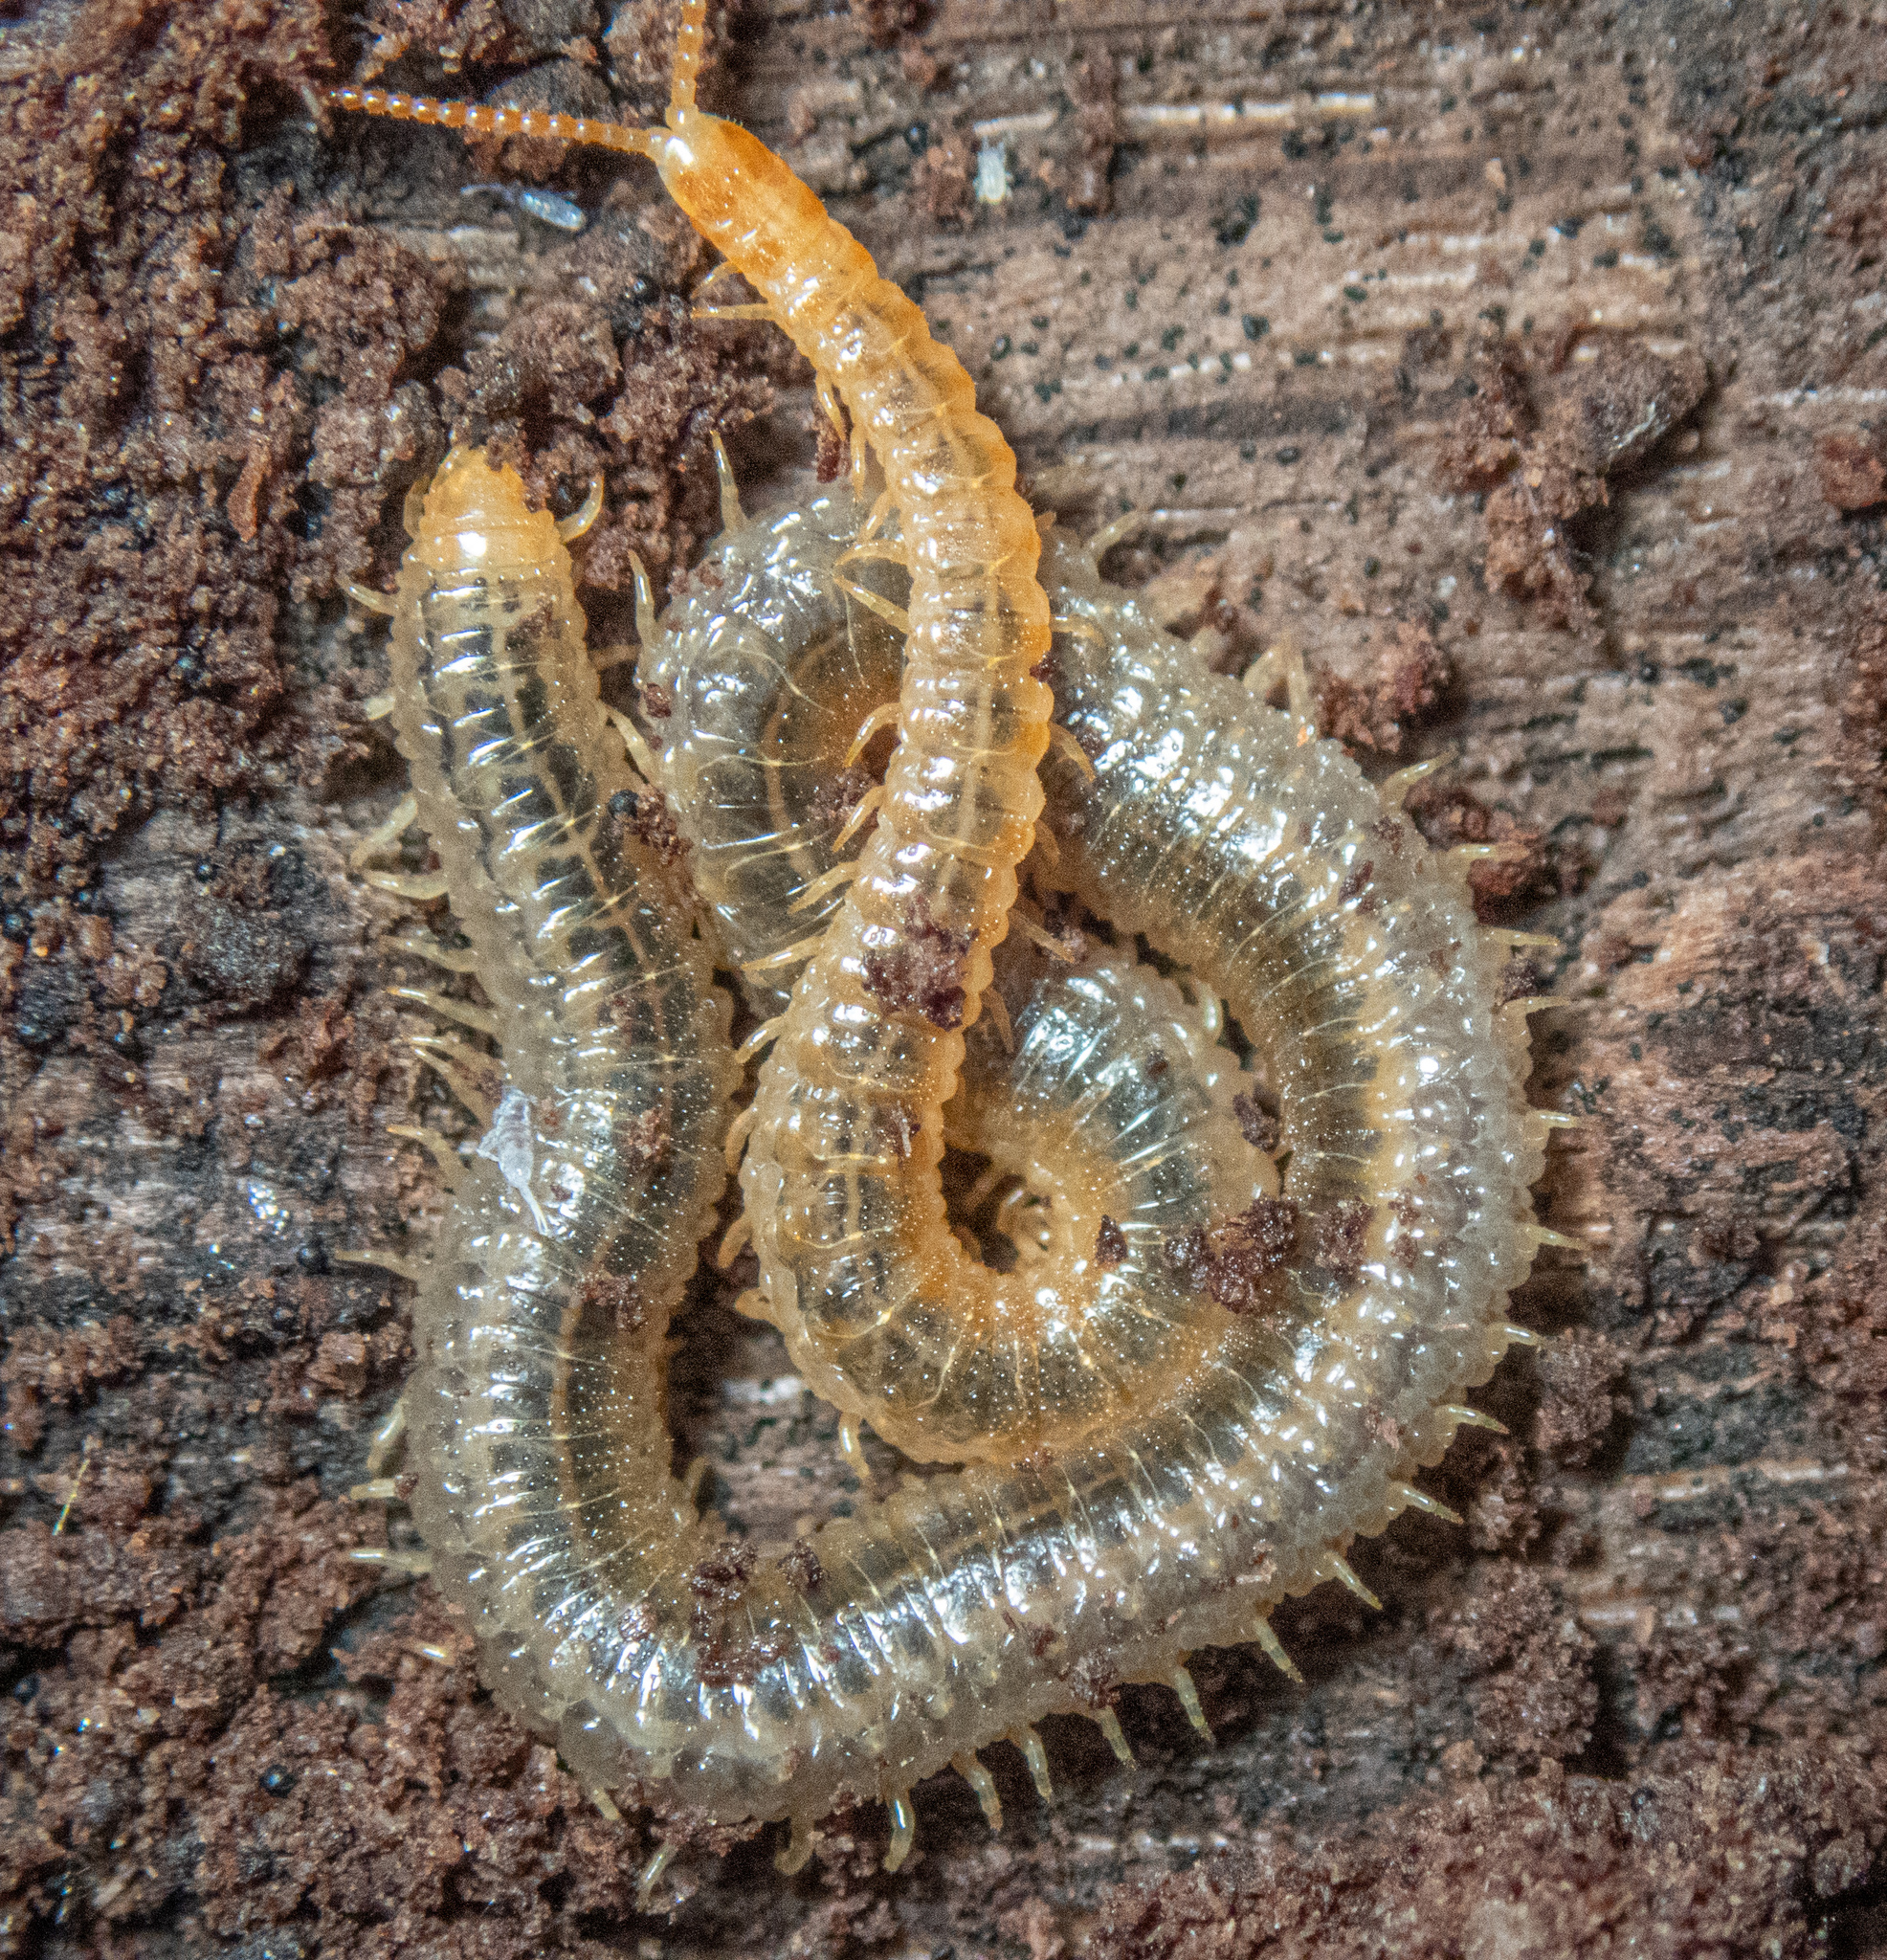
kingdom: Animalia
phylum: Arthropoda
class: Chilopoda
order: Geophilomorpha
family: Dignathodontidae
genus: Henia
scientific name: Henia vesuviana
